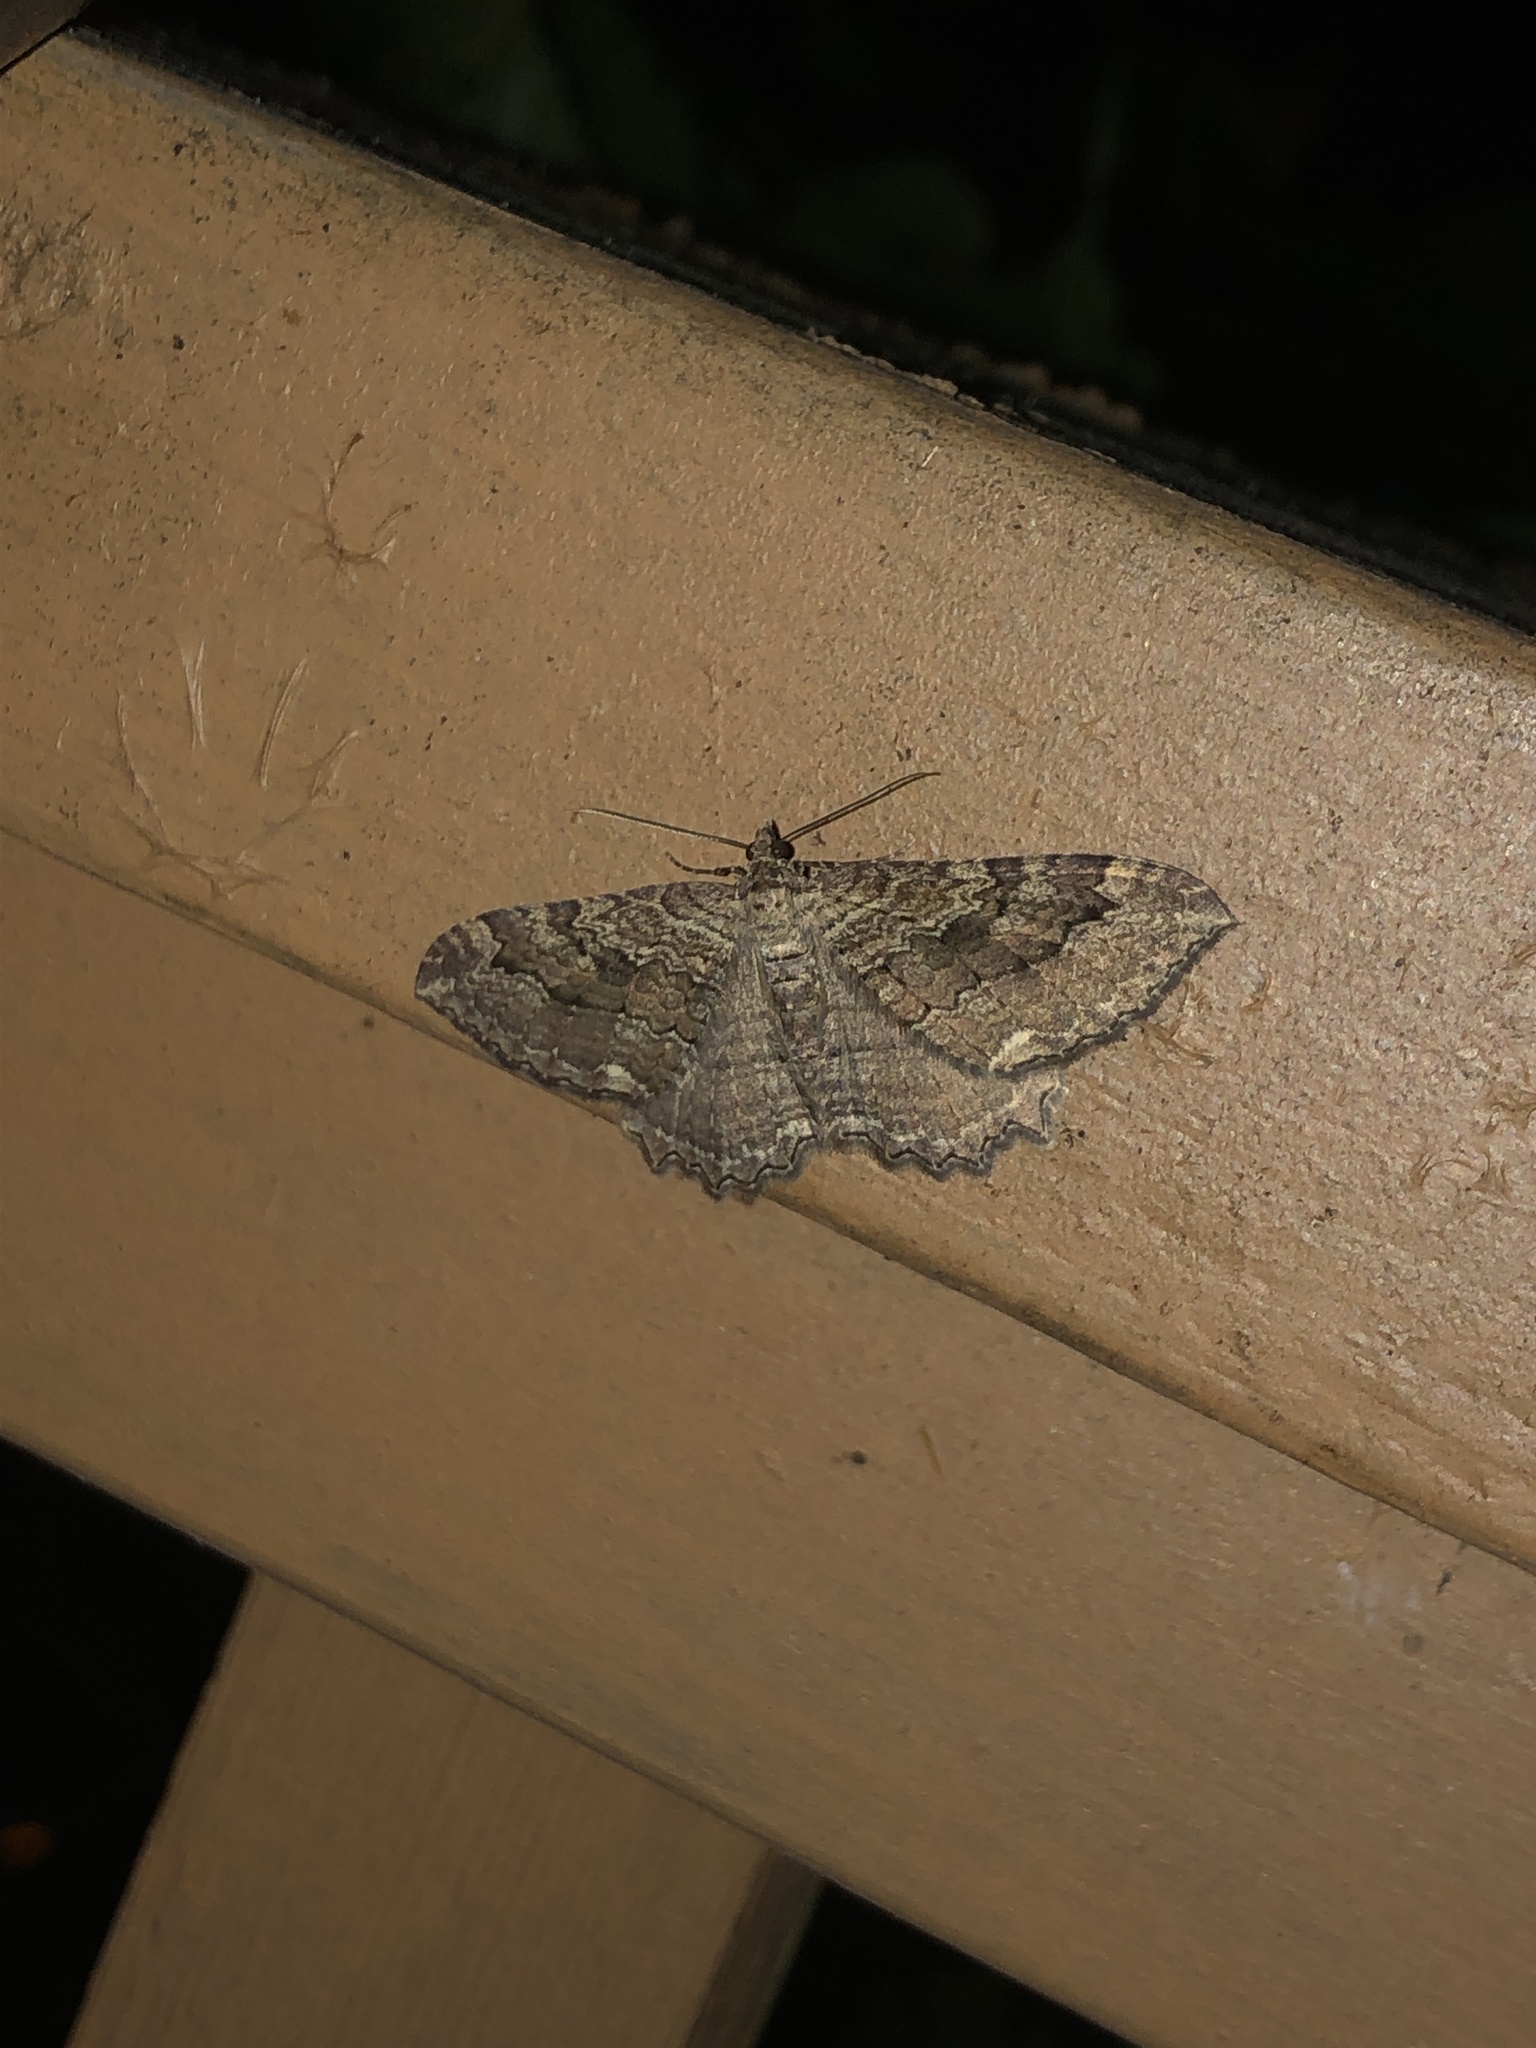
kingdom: Animalia
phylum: Arthropoda
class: Insecta
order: Lepidoptera
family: Geometridae
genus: Rheumaptera
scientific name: Rheumaptera
